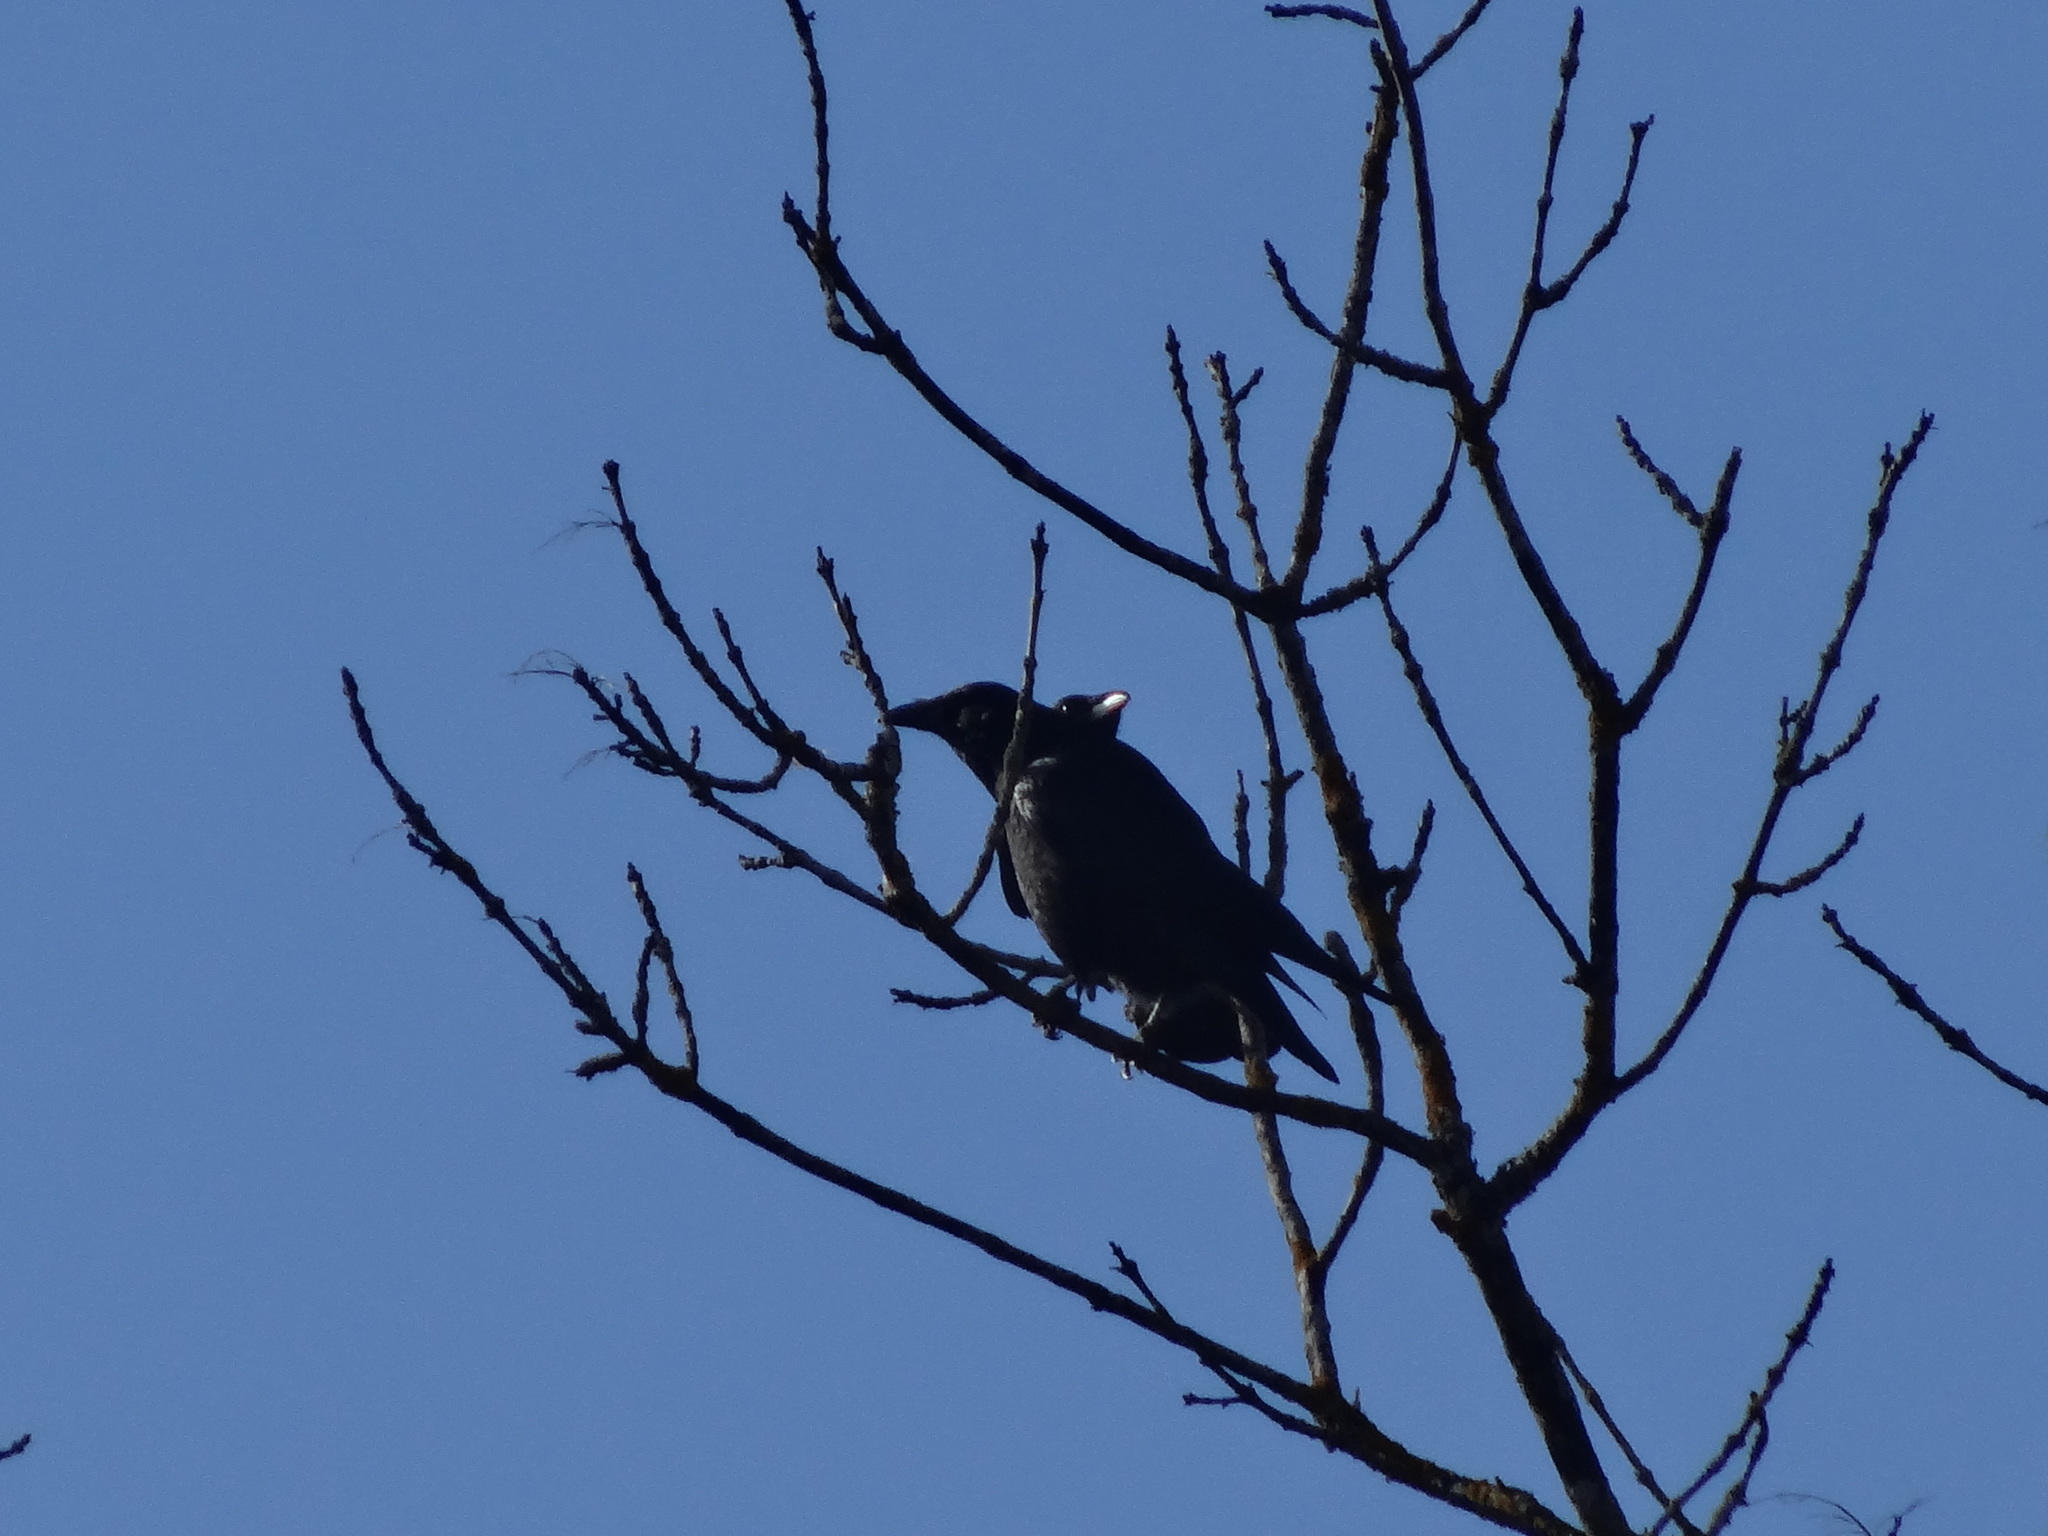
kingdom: Animalia
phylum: Chordata
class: Aves
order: Passeriformes
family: Corvidae
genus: Corvus
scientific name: Corvus corone
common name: Carrion crow
